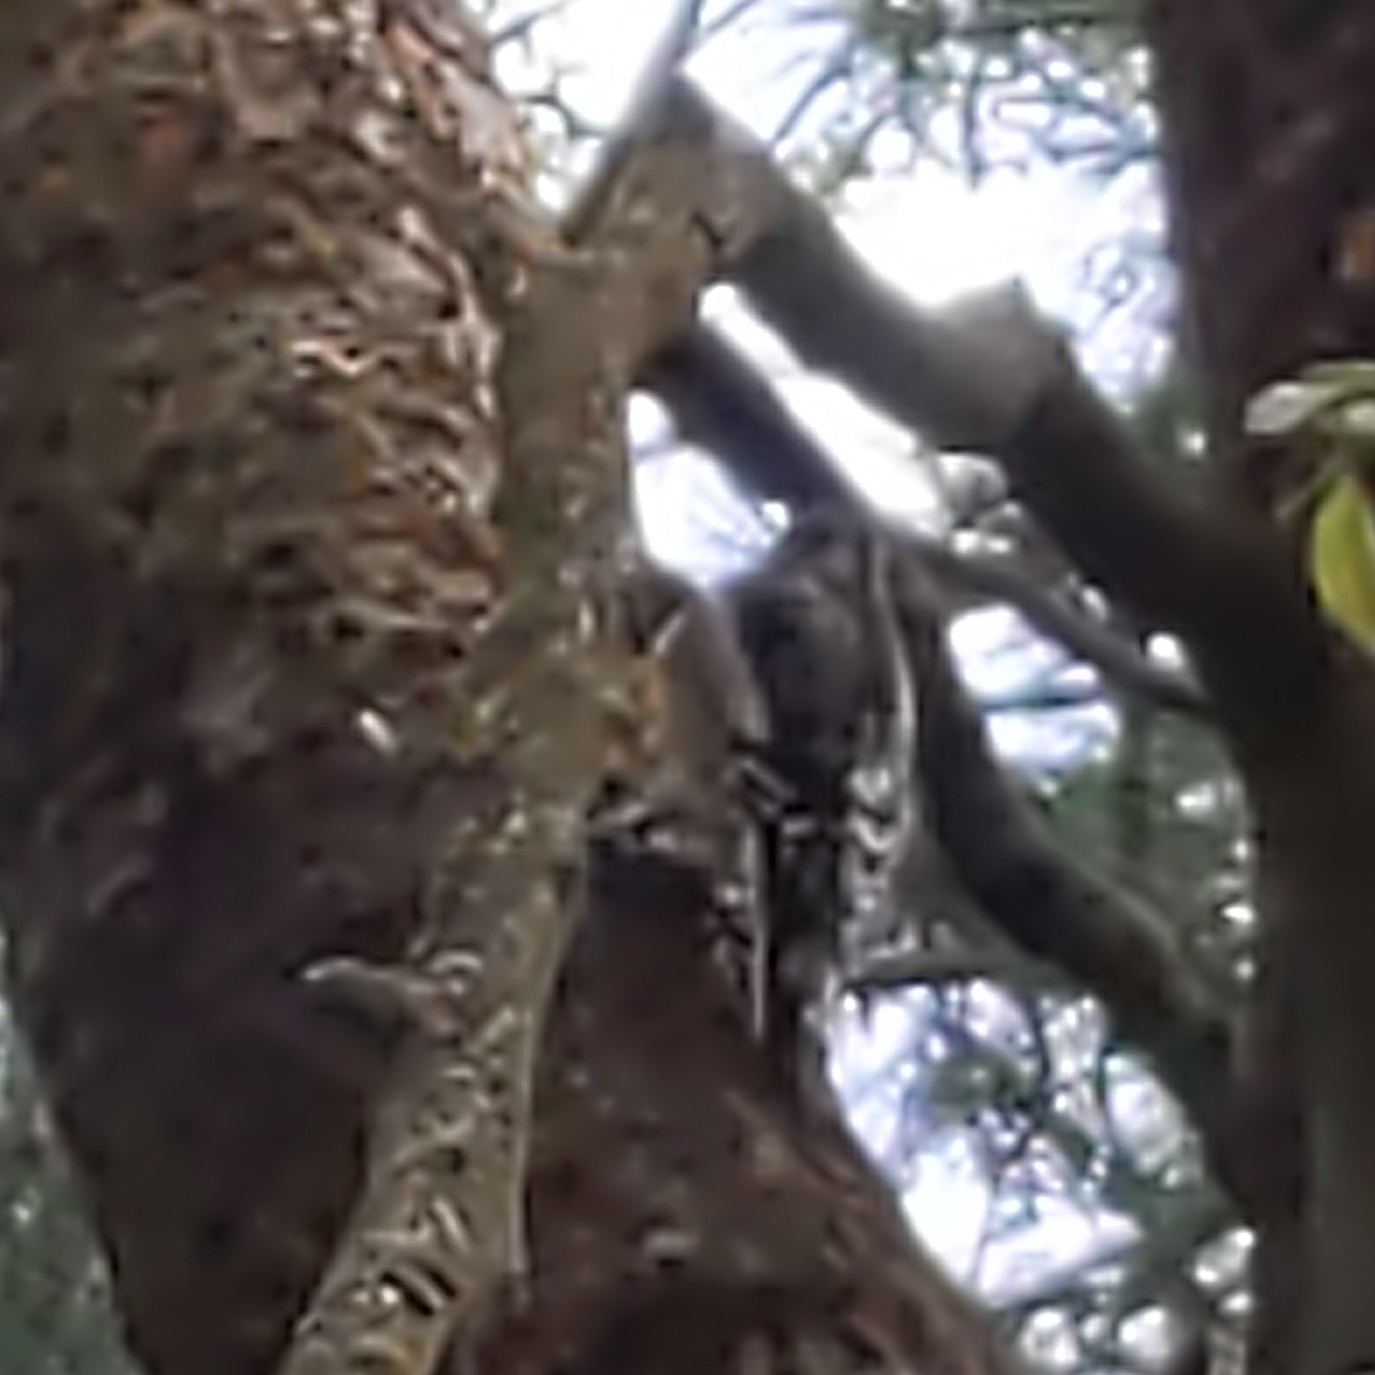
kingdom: Animalia
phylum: Chordata
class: Aves
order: Piciformes
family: Picidae
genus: Sphyrapicus
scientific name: Sphyrapicus varius
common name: Yellow-bellied sapsucker
